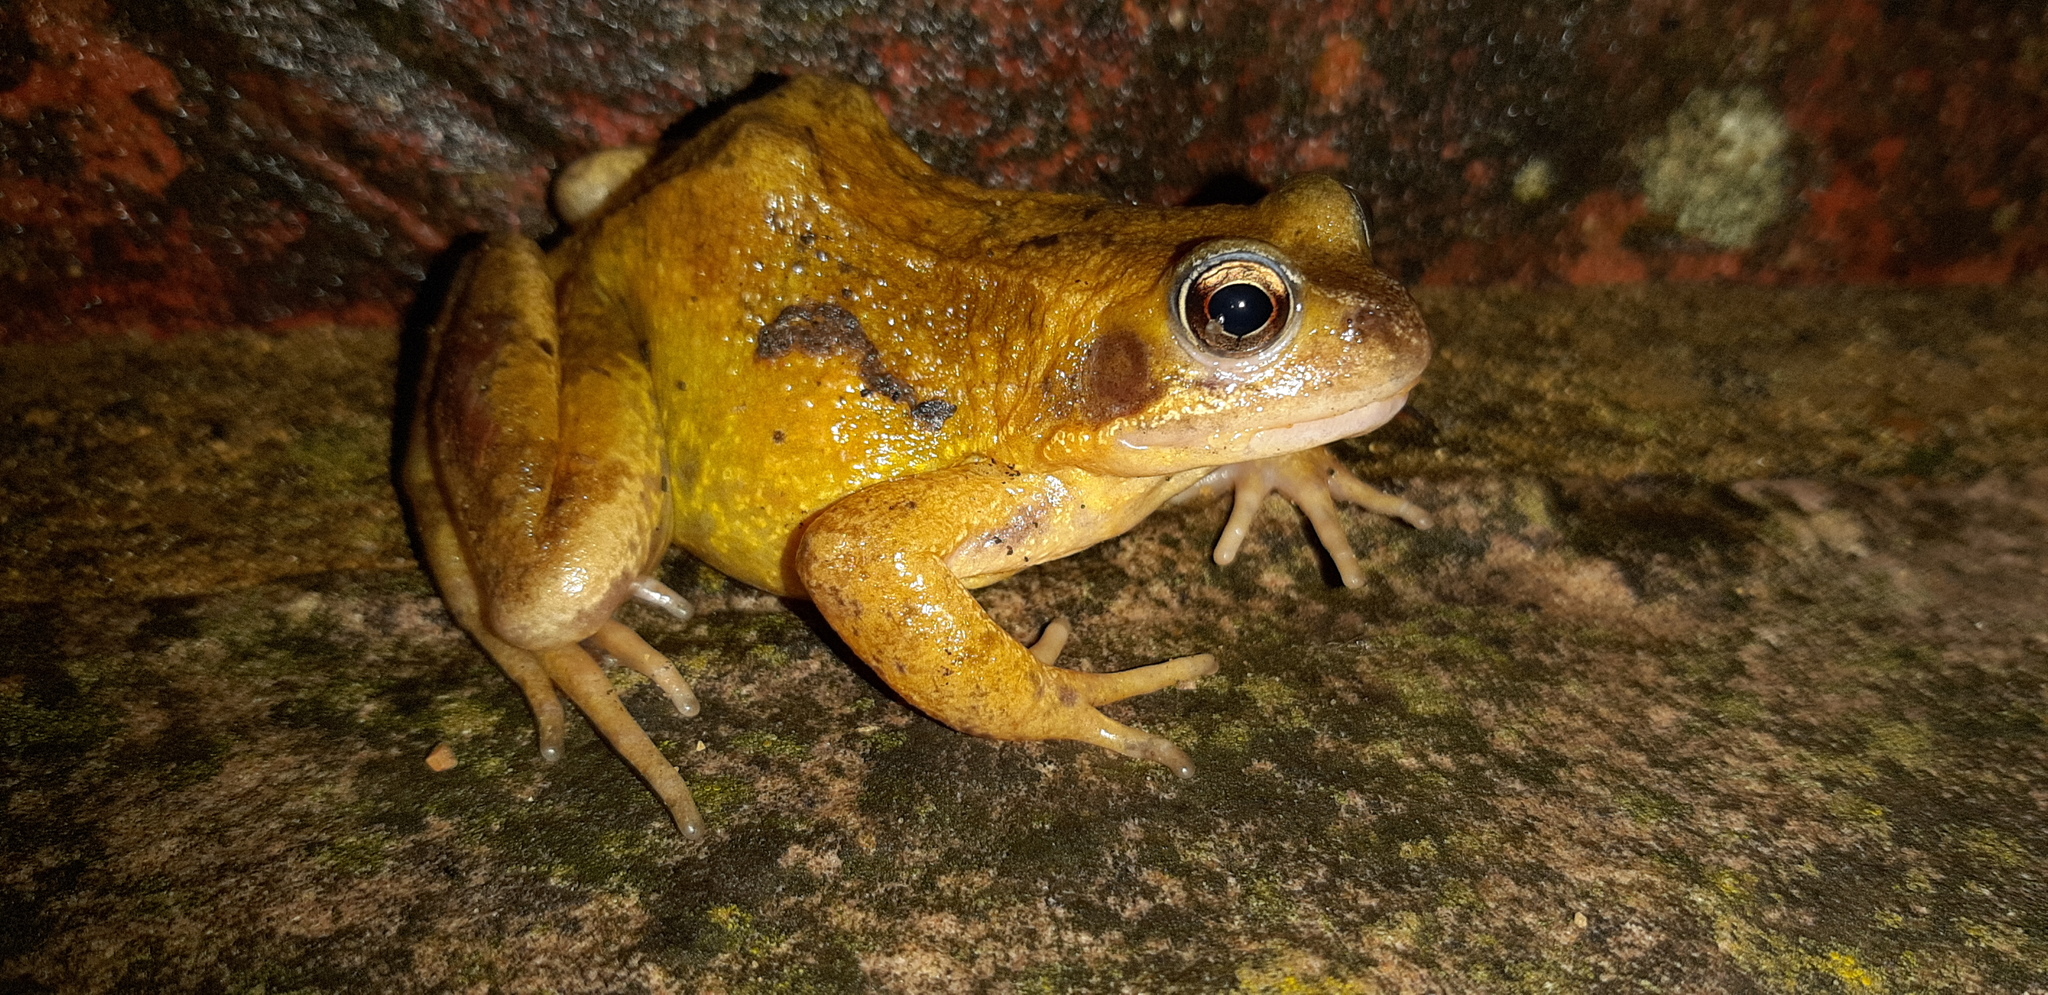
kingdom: Animalia
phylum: Chordata
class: Amphibia
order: Anura
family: Ranidae
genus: Rana
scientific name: Rana temporaria
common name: Common frog
